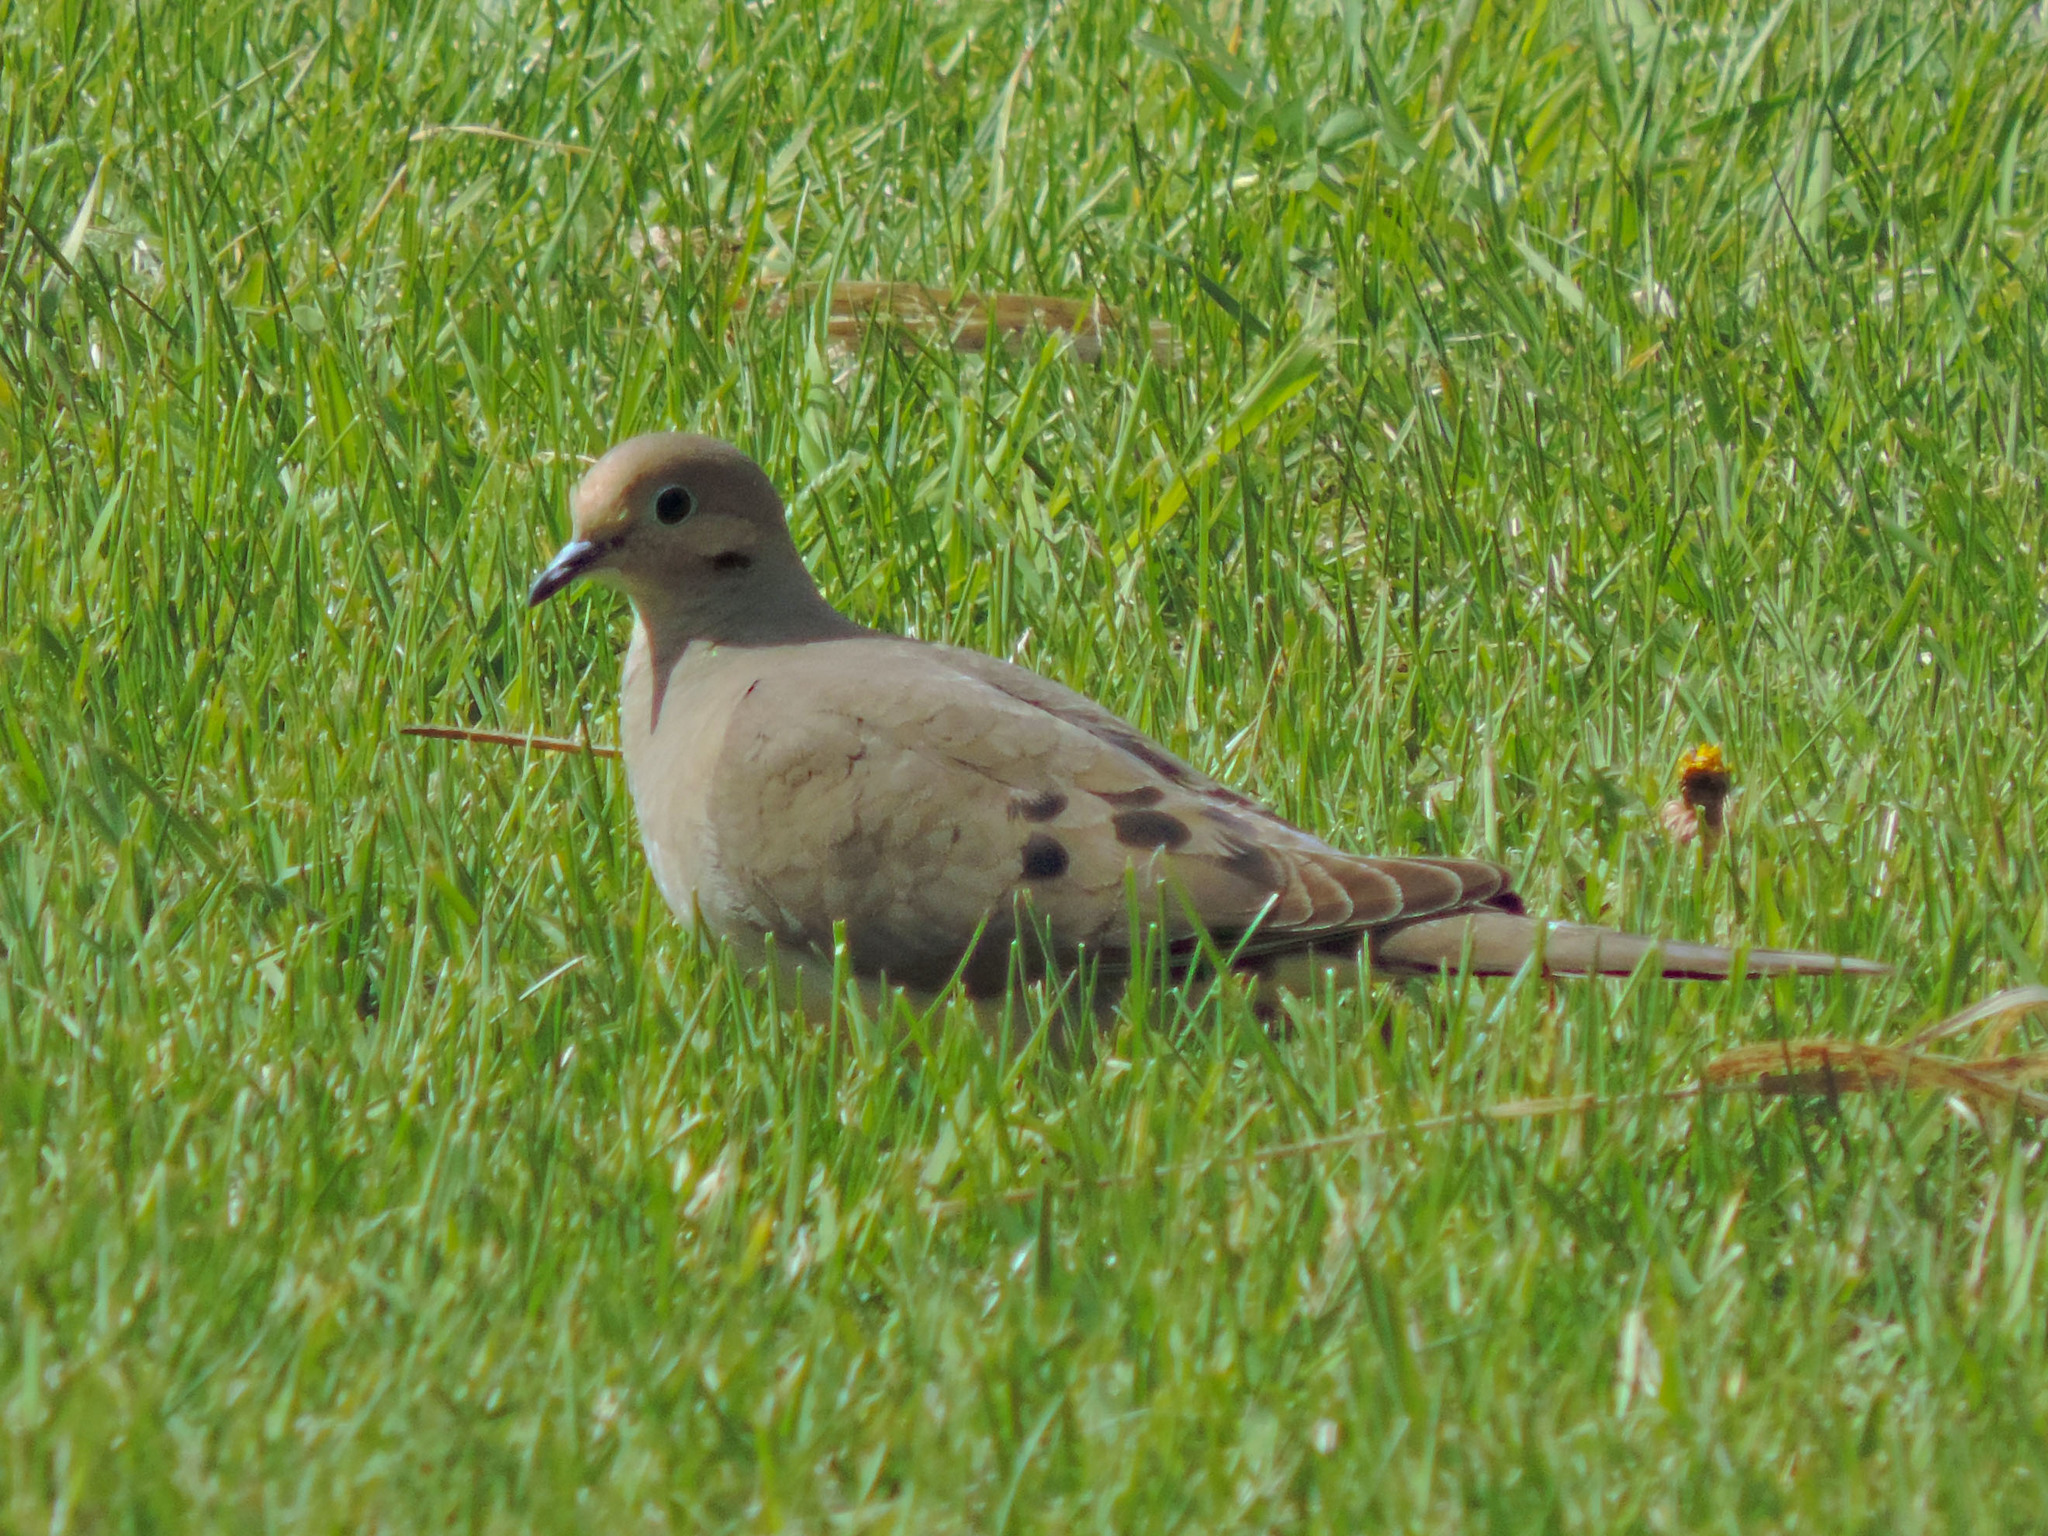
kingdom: Animalia
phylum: Chordata
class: Aves
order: Columbiformes
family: Columbidae
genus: Zenaida
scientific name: Zenaida macroura
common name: Mourning dove
